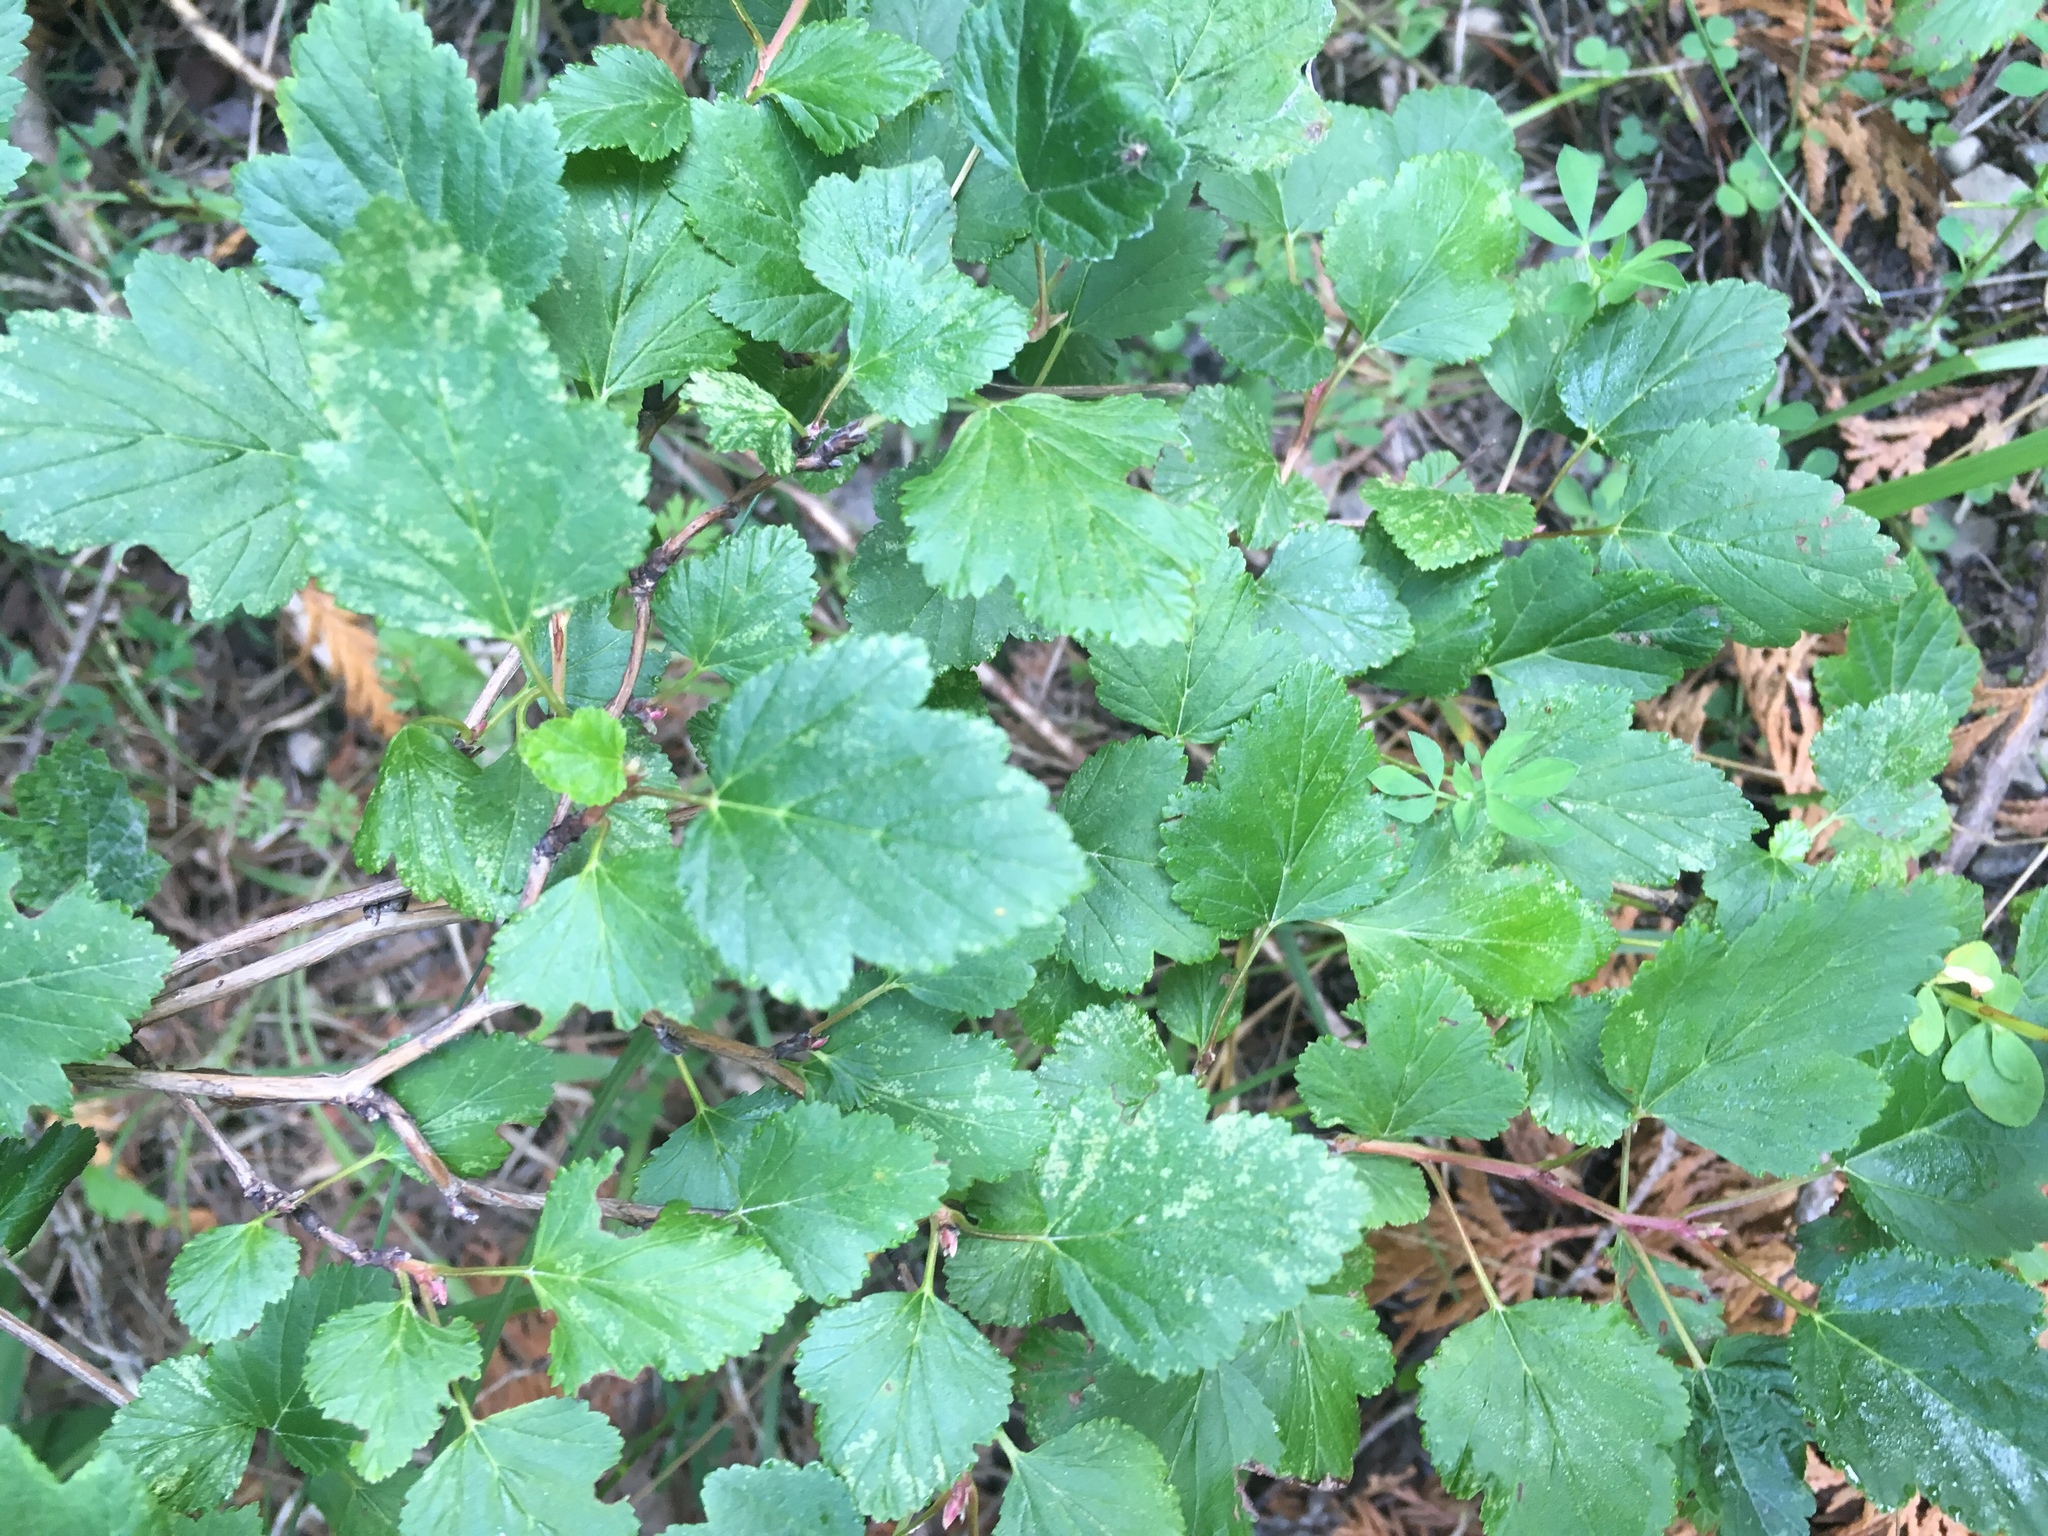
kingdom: Plantae
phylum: Tracheophyta
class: Magnoliopsida
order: Rosales
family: Rosaceae
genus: Physocarpus
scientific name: Physocarpus opulifolius
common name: Ninebark
